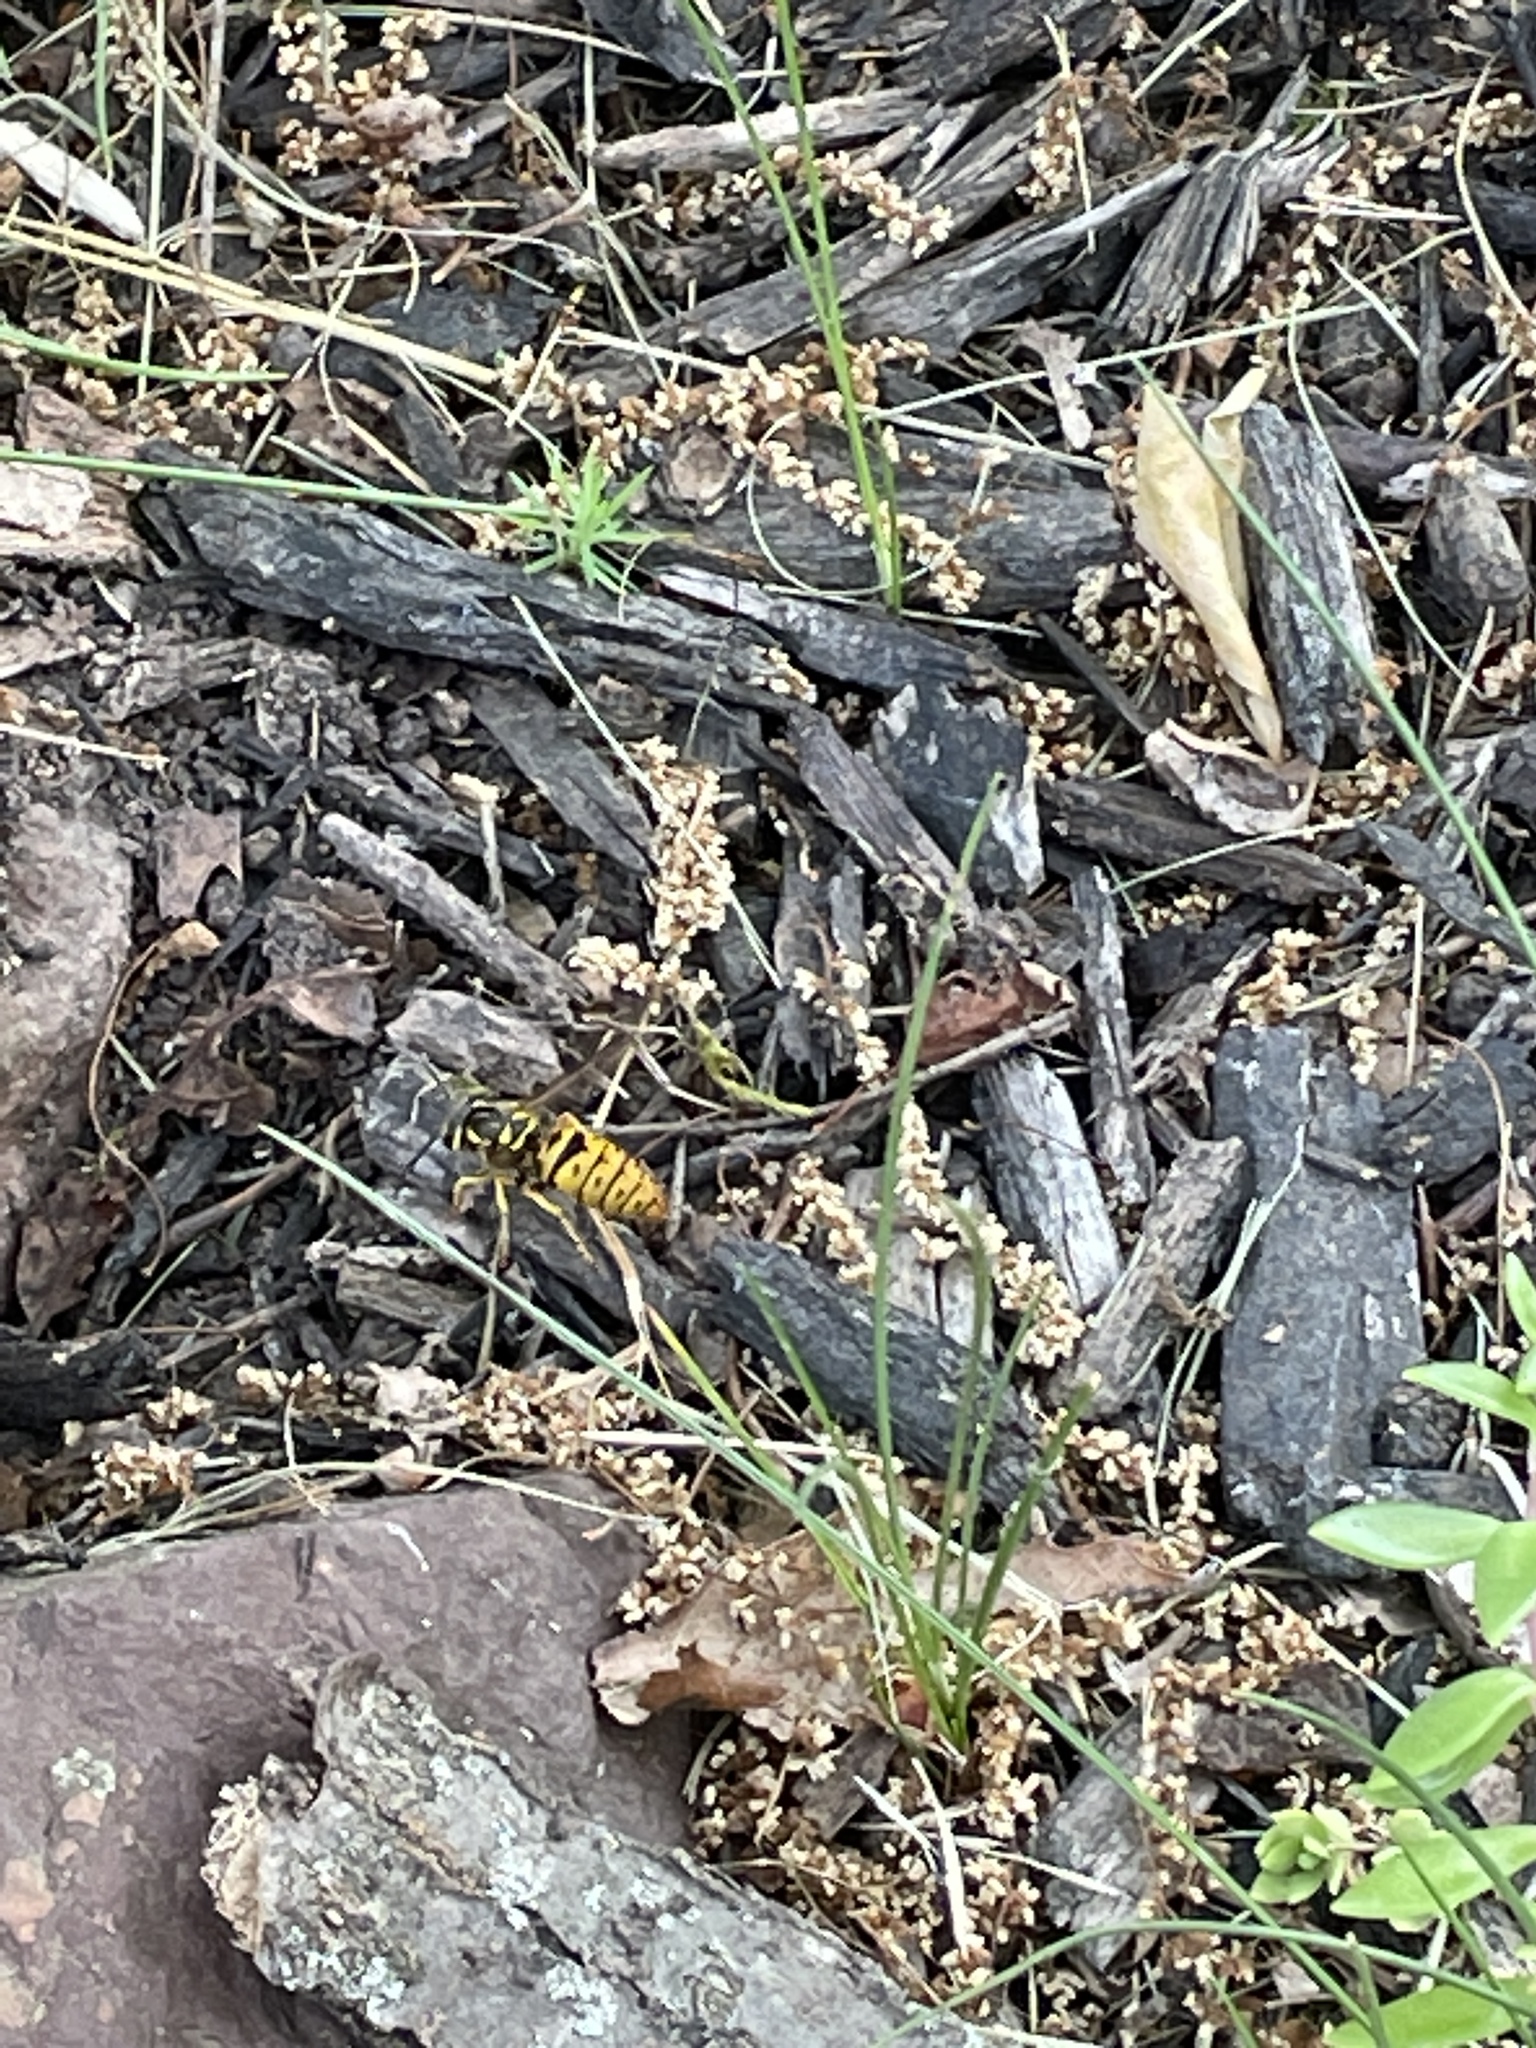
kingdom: Animalia
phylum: Arthropoda
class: Insecta
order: Hymenoptera
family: Vespidae
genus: Vespula
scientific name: Vespula maculifrons
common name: Eastern yellowjacket
